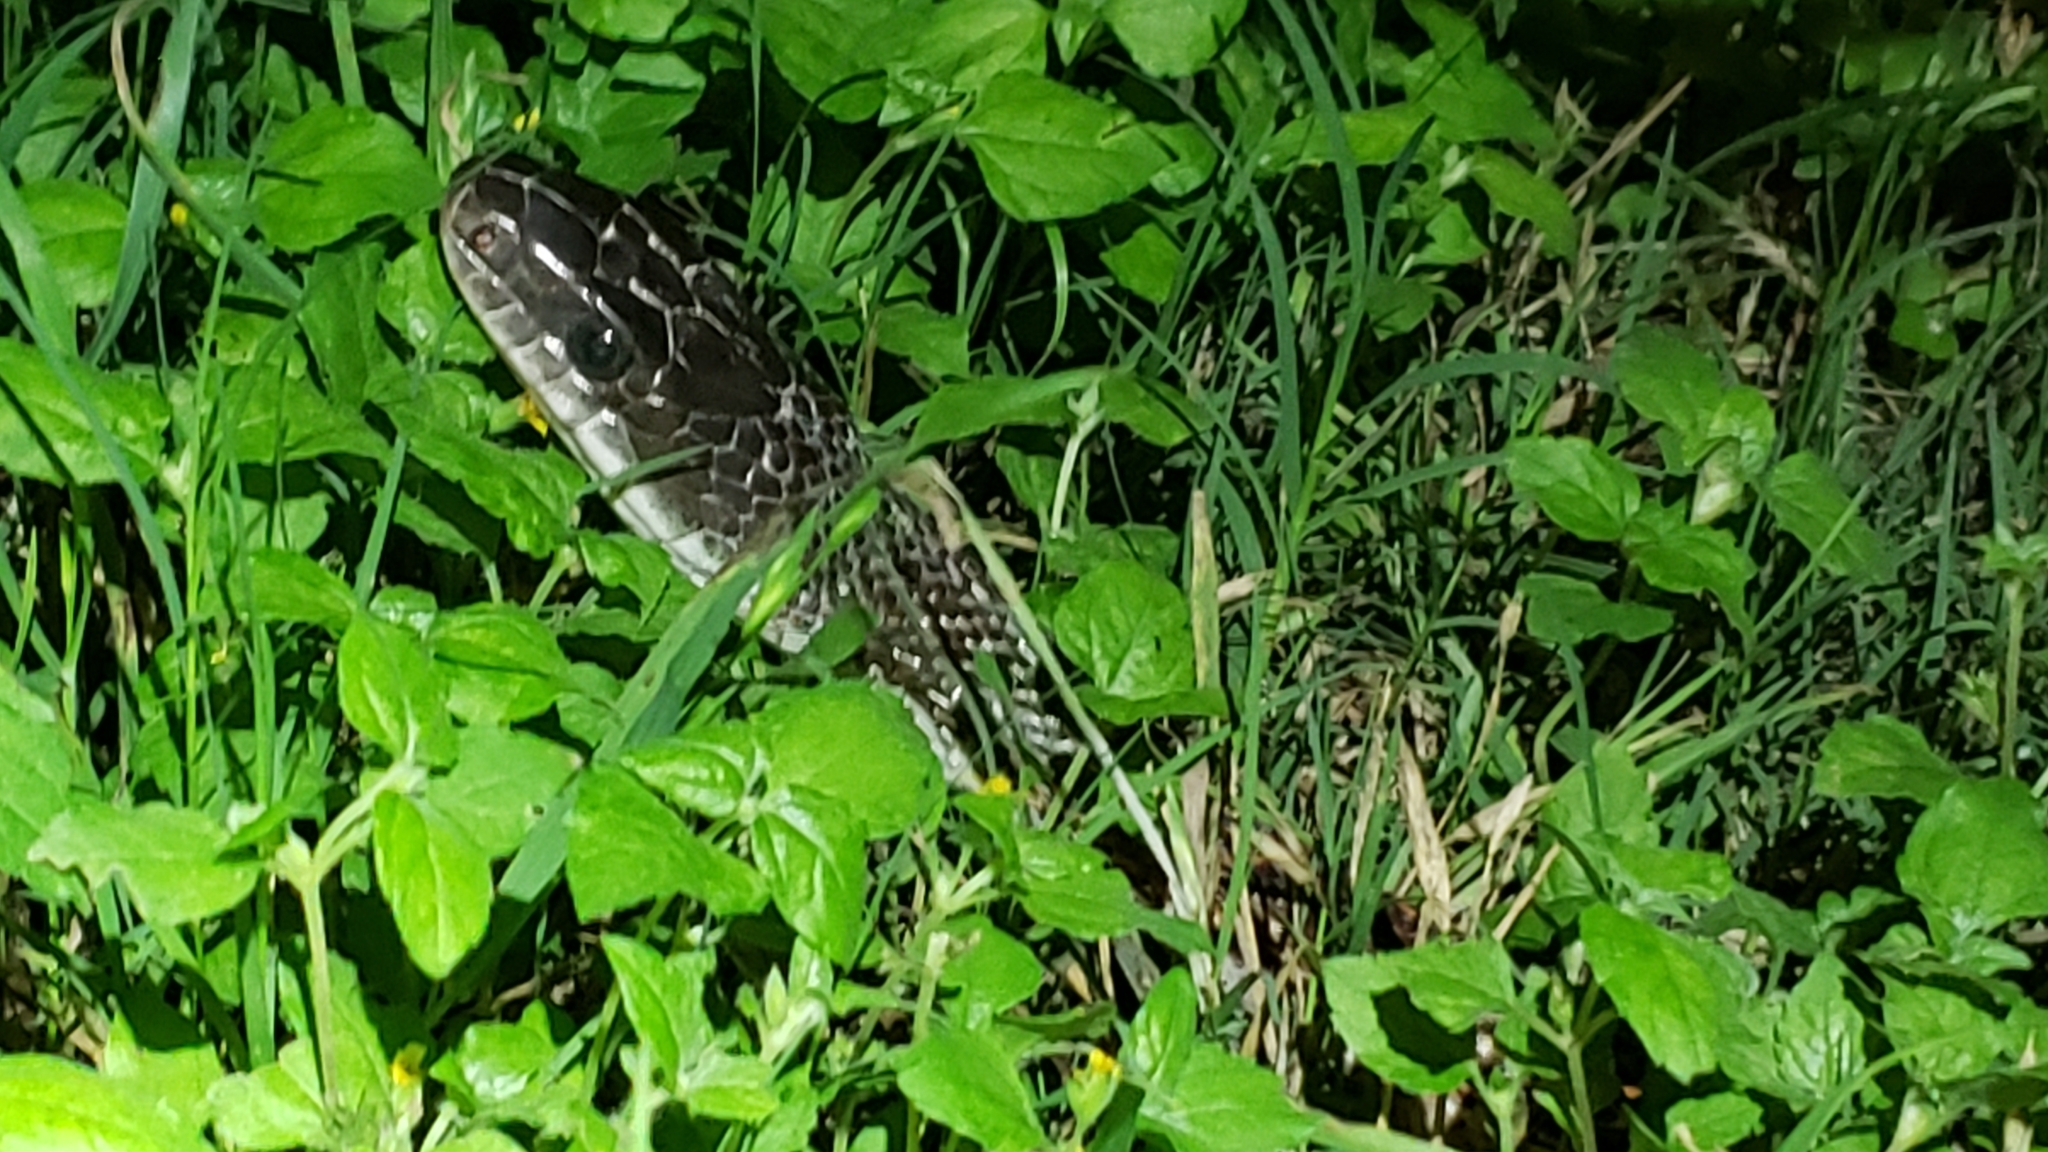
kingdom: Animalia
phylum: Chordata
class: Squamata
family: Colubridae
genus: Pantherophis
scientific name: Pantherophis obsoletus
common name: Black rat snake
